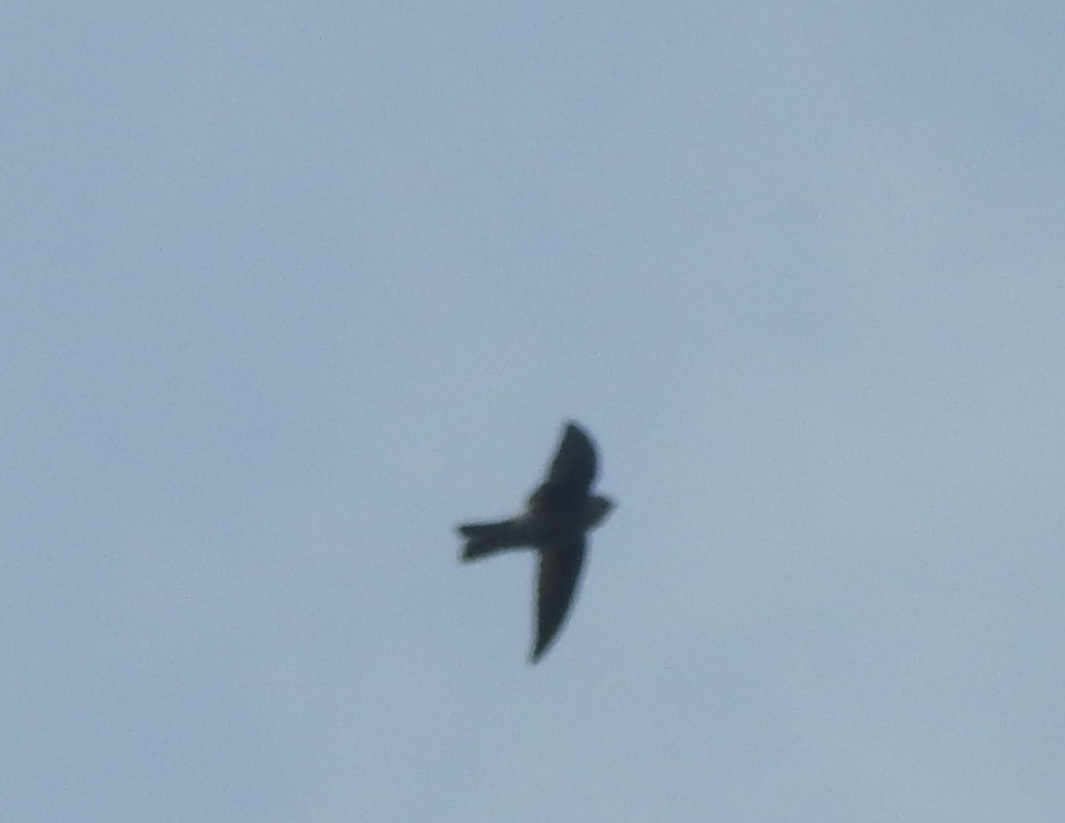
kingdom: Animalia
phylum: Chordata
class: Aves
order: Apodiformes
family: Apodidae
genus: Aerodramus
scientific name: Aerodramus
